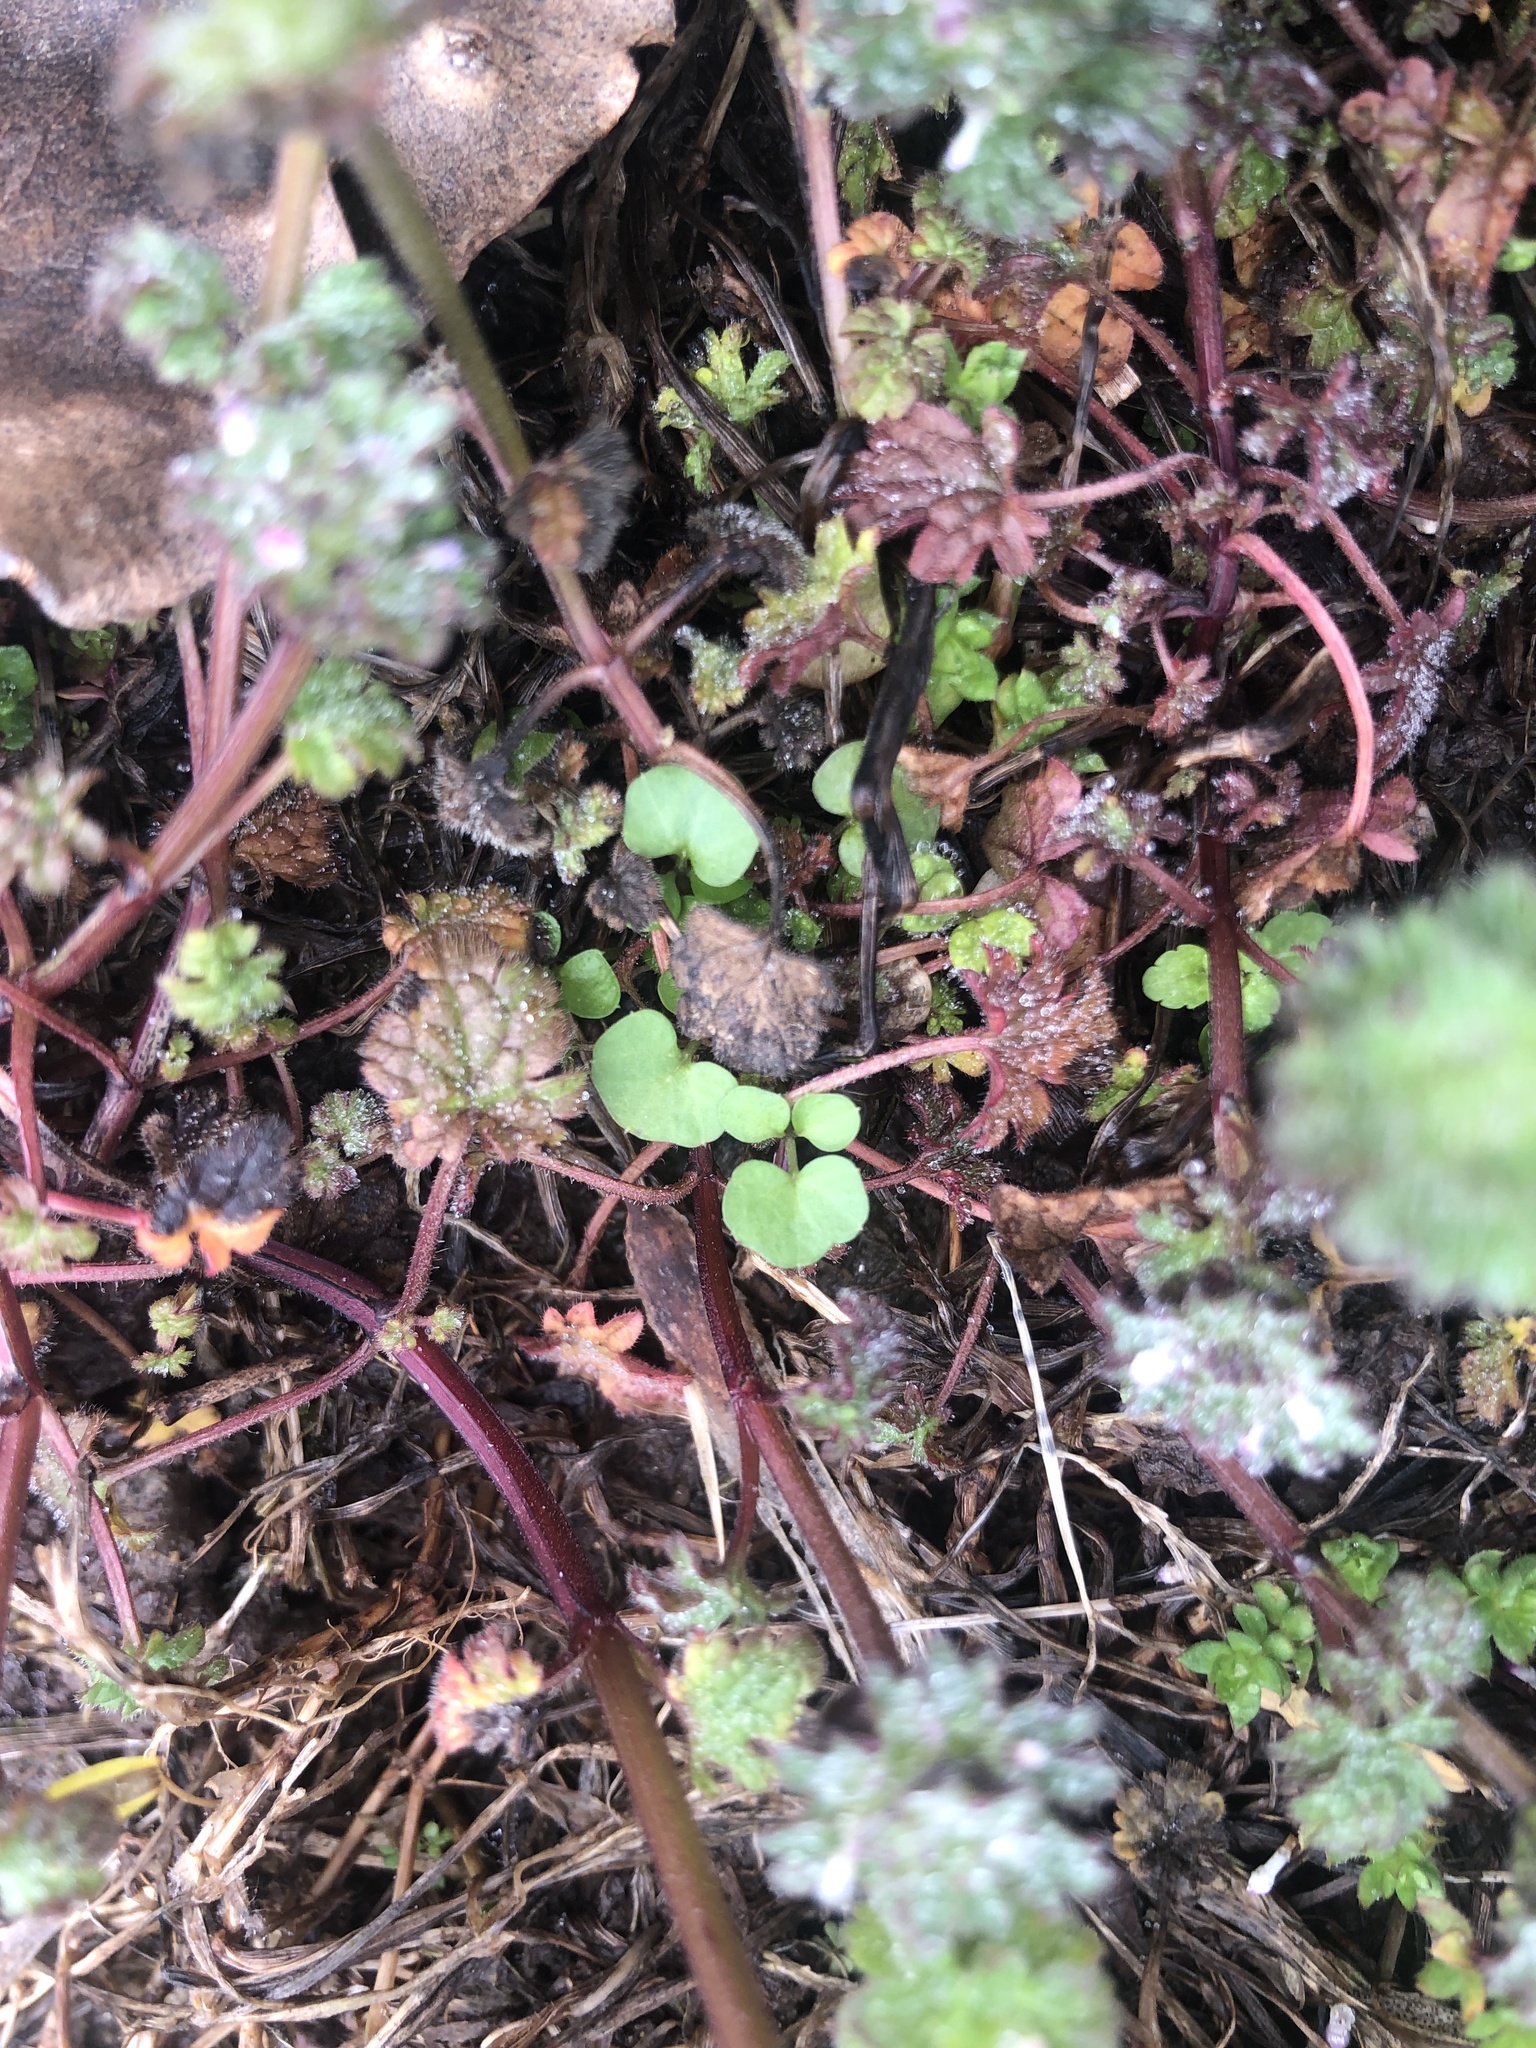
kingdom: Plantae
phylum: Tracheophyta
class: Magnoliopsida
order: Lamiales
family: Lamiaceae
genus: Lamium
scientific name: Lamium amplexicaule
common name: Henbit dead-nettle
